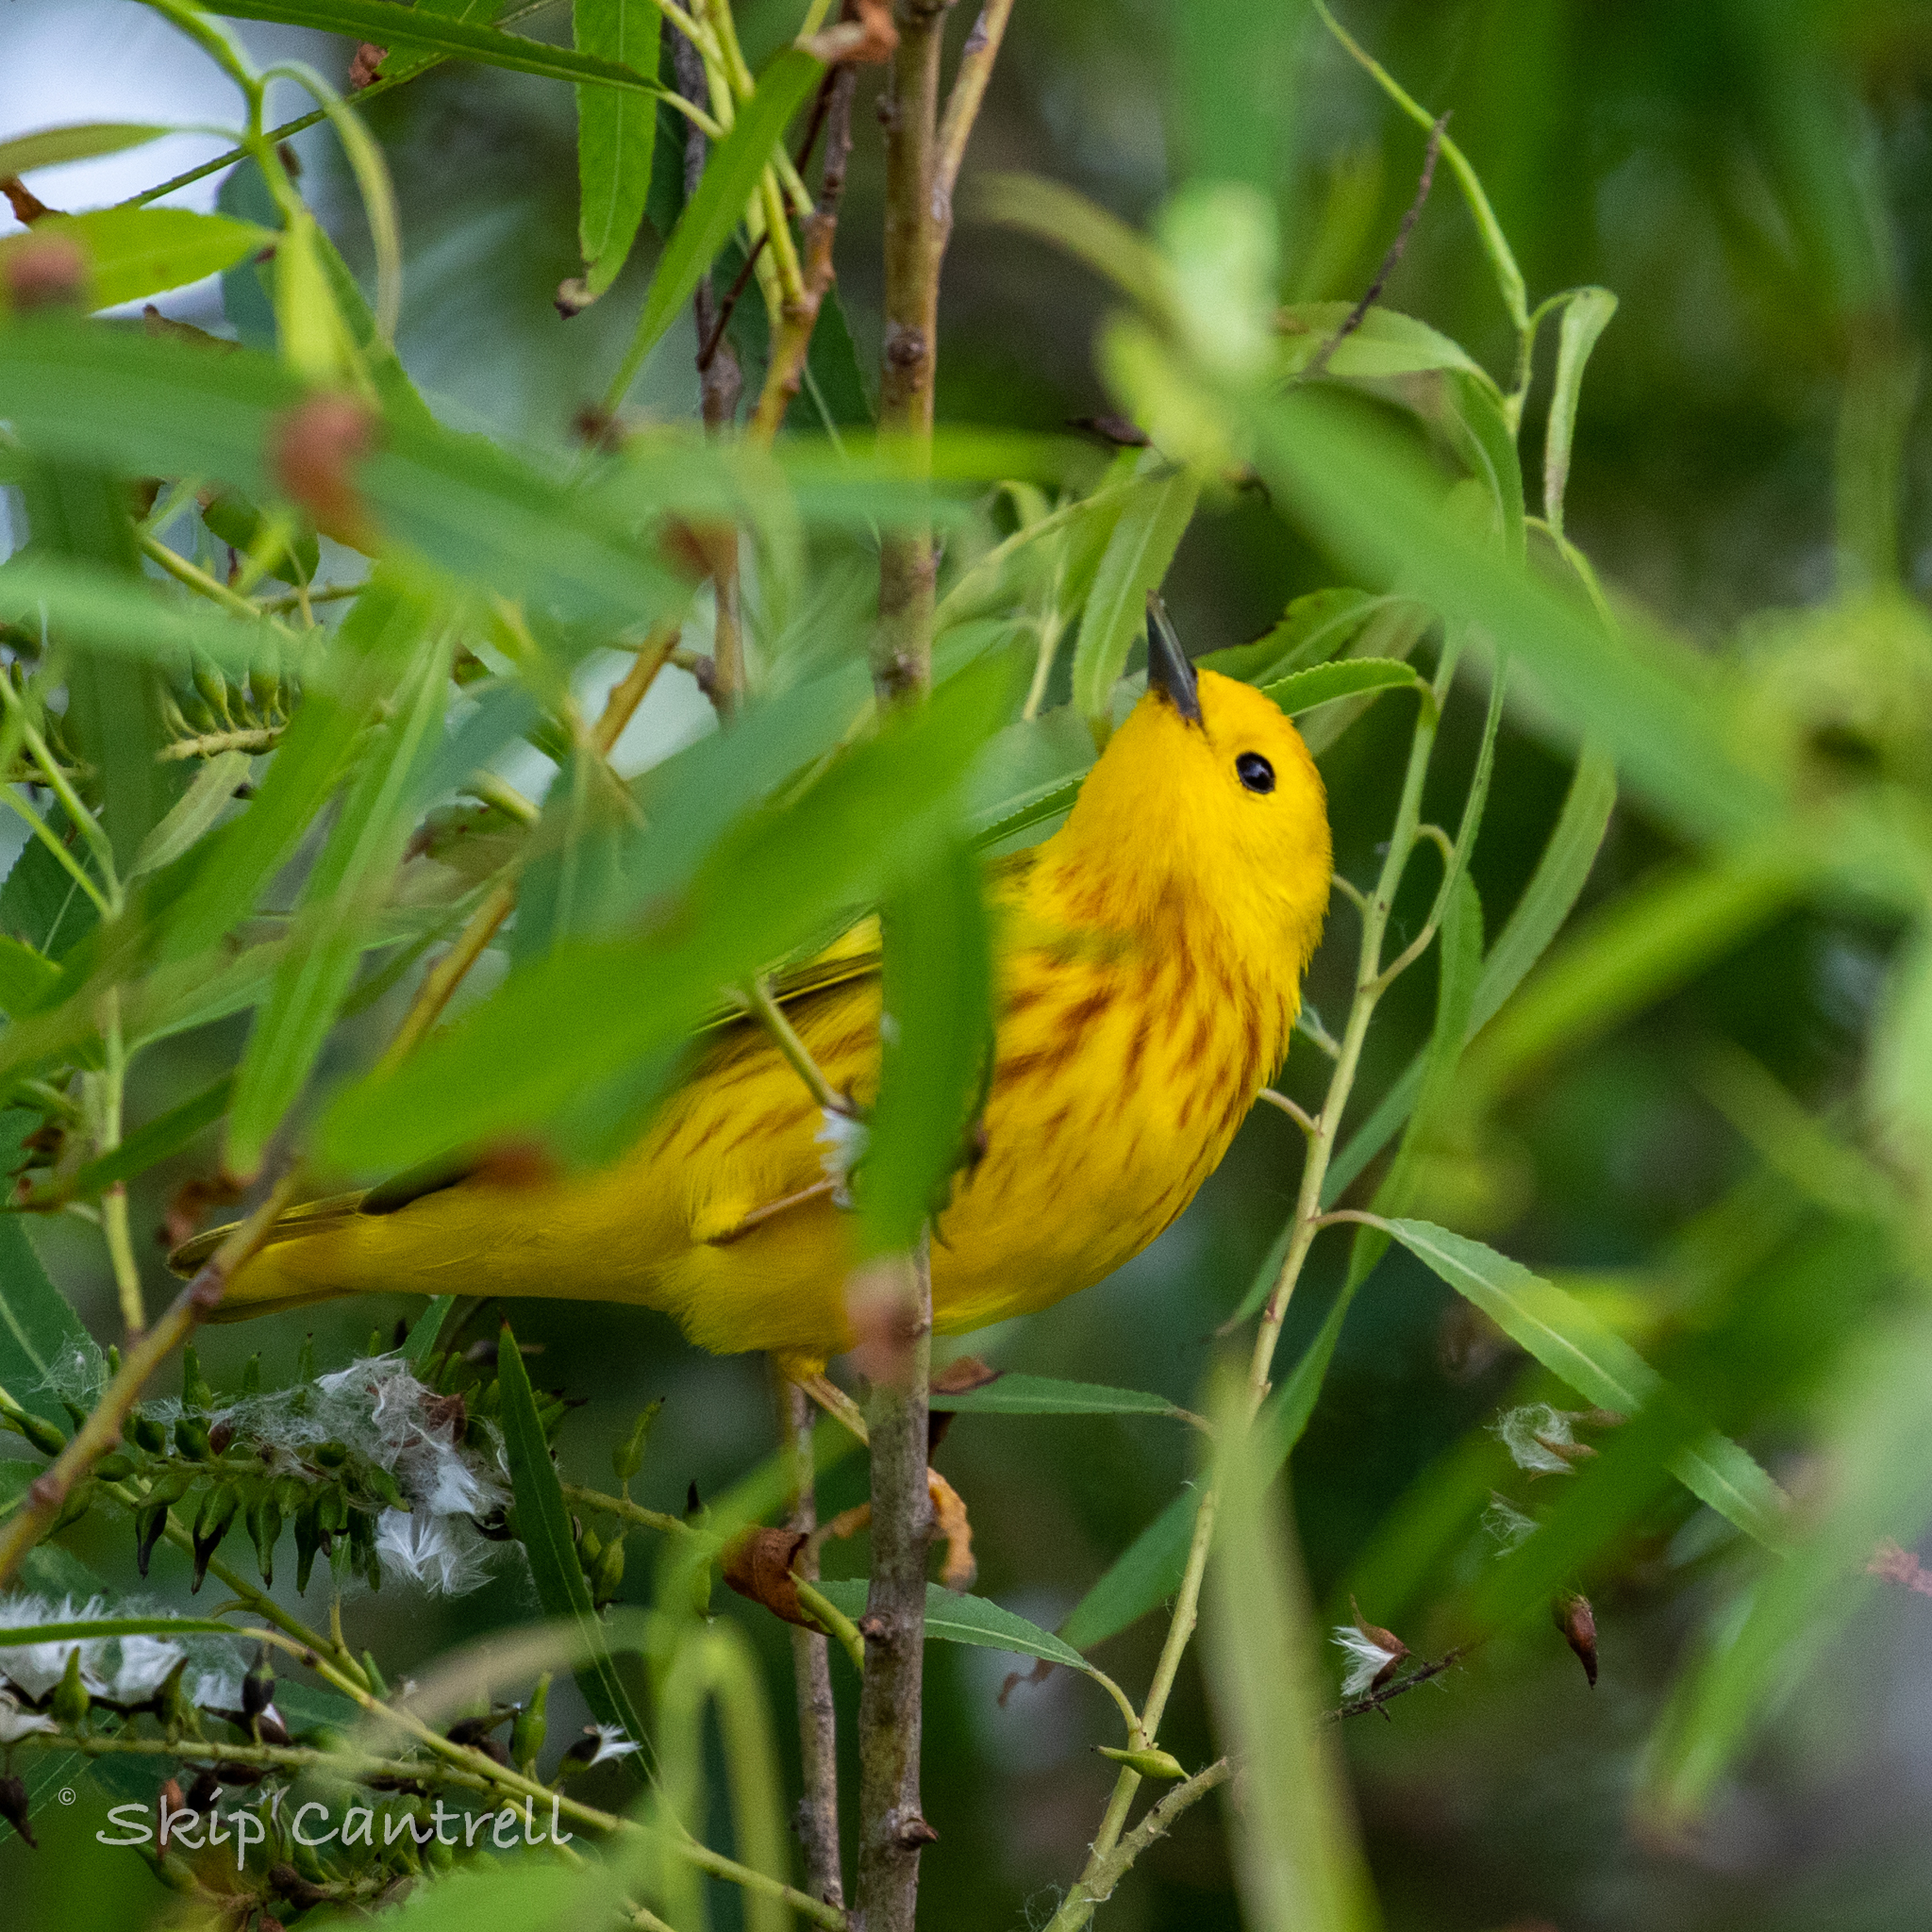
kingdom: Animalia
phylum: Chordata
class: Aves
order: Passeriformes
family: Parulidae
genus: Setophaga
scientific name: Setophaga petechia
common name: Yellow warbler
